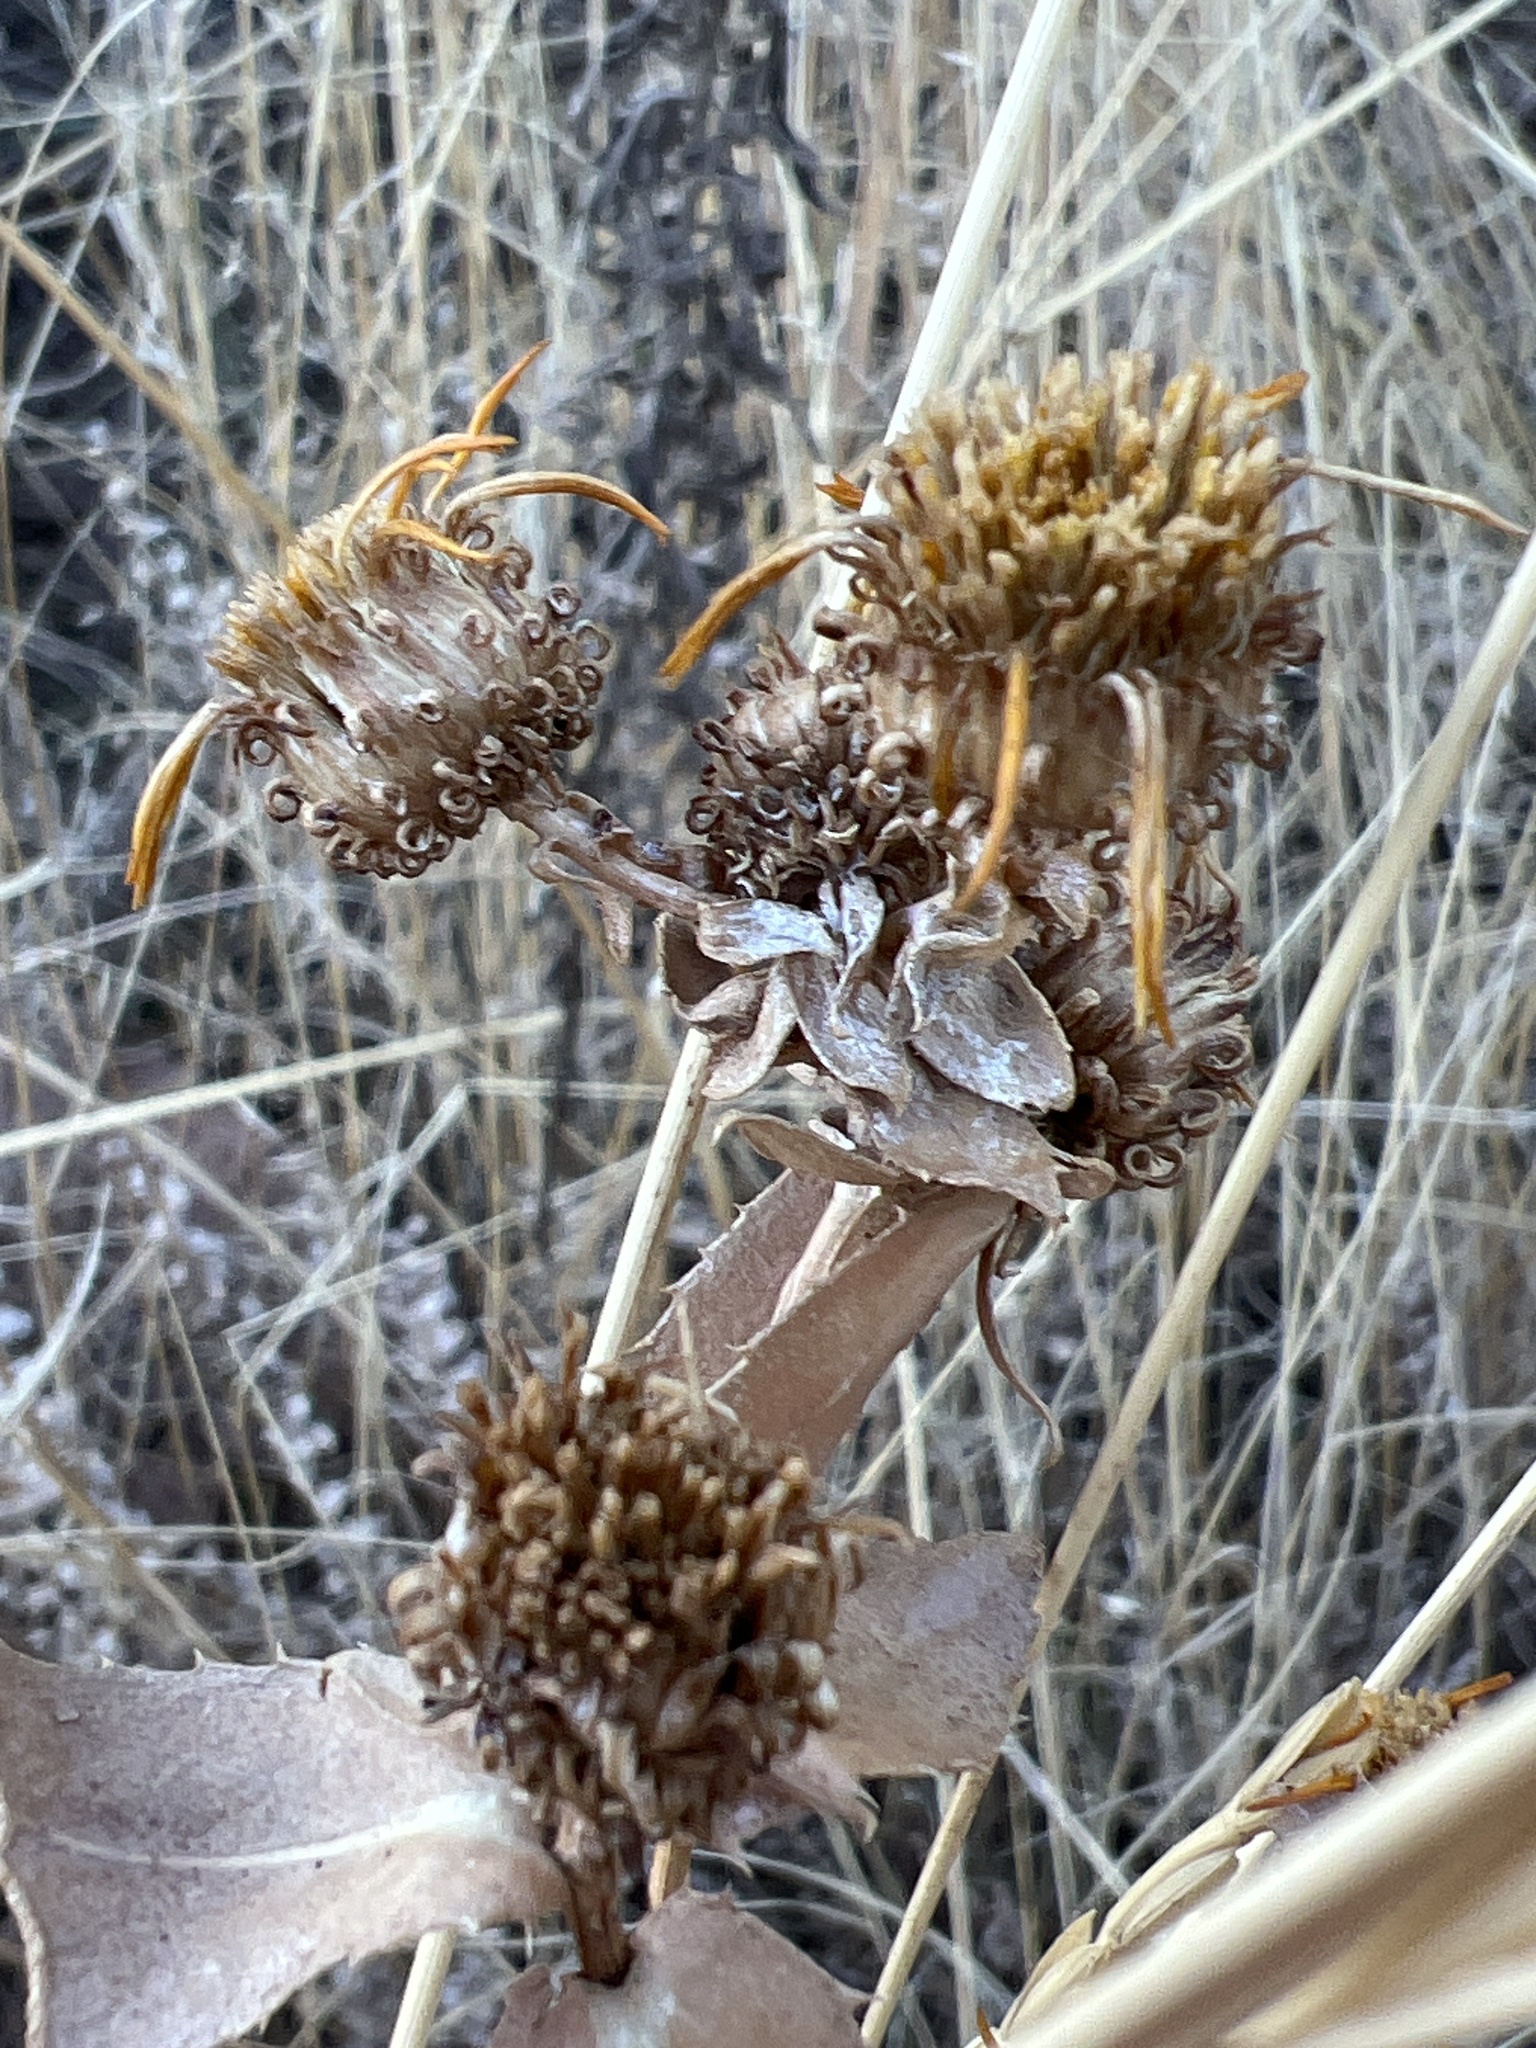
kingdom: Plantae
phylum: Tracheophyta
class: Magnoliopsida
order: Asterales
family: Asteraceae
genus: Grindelia
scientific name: Grindelia squarrosa
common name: Curly-cup gumweed
